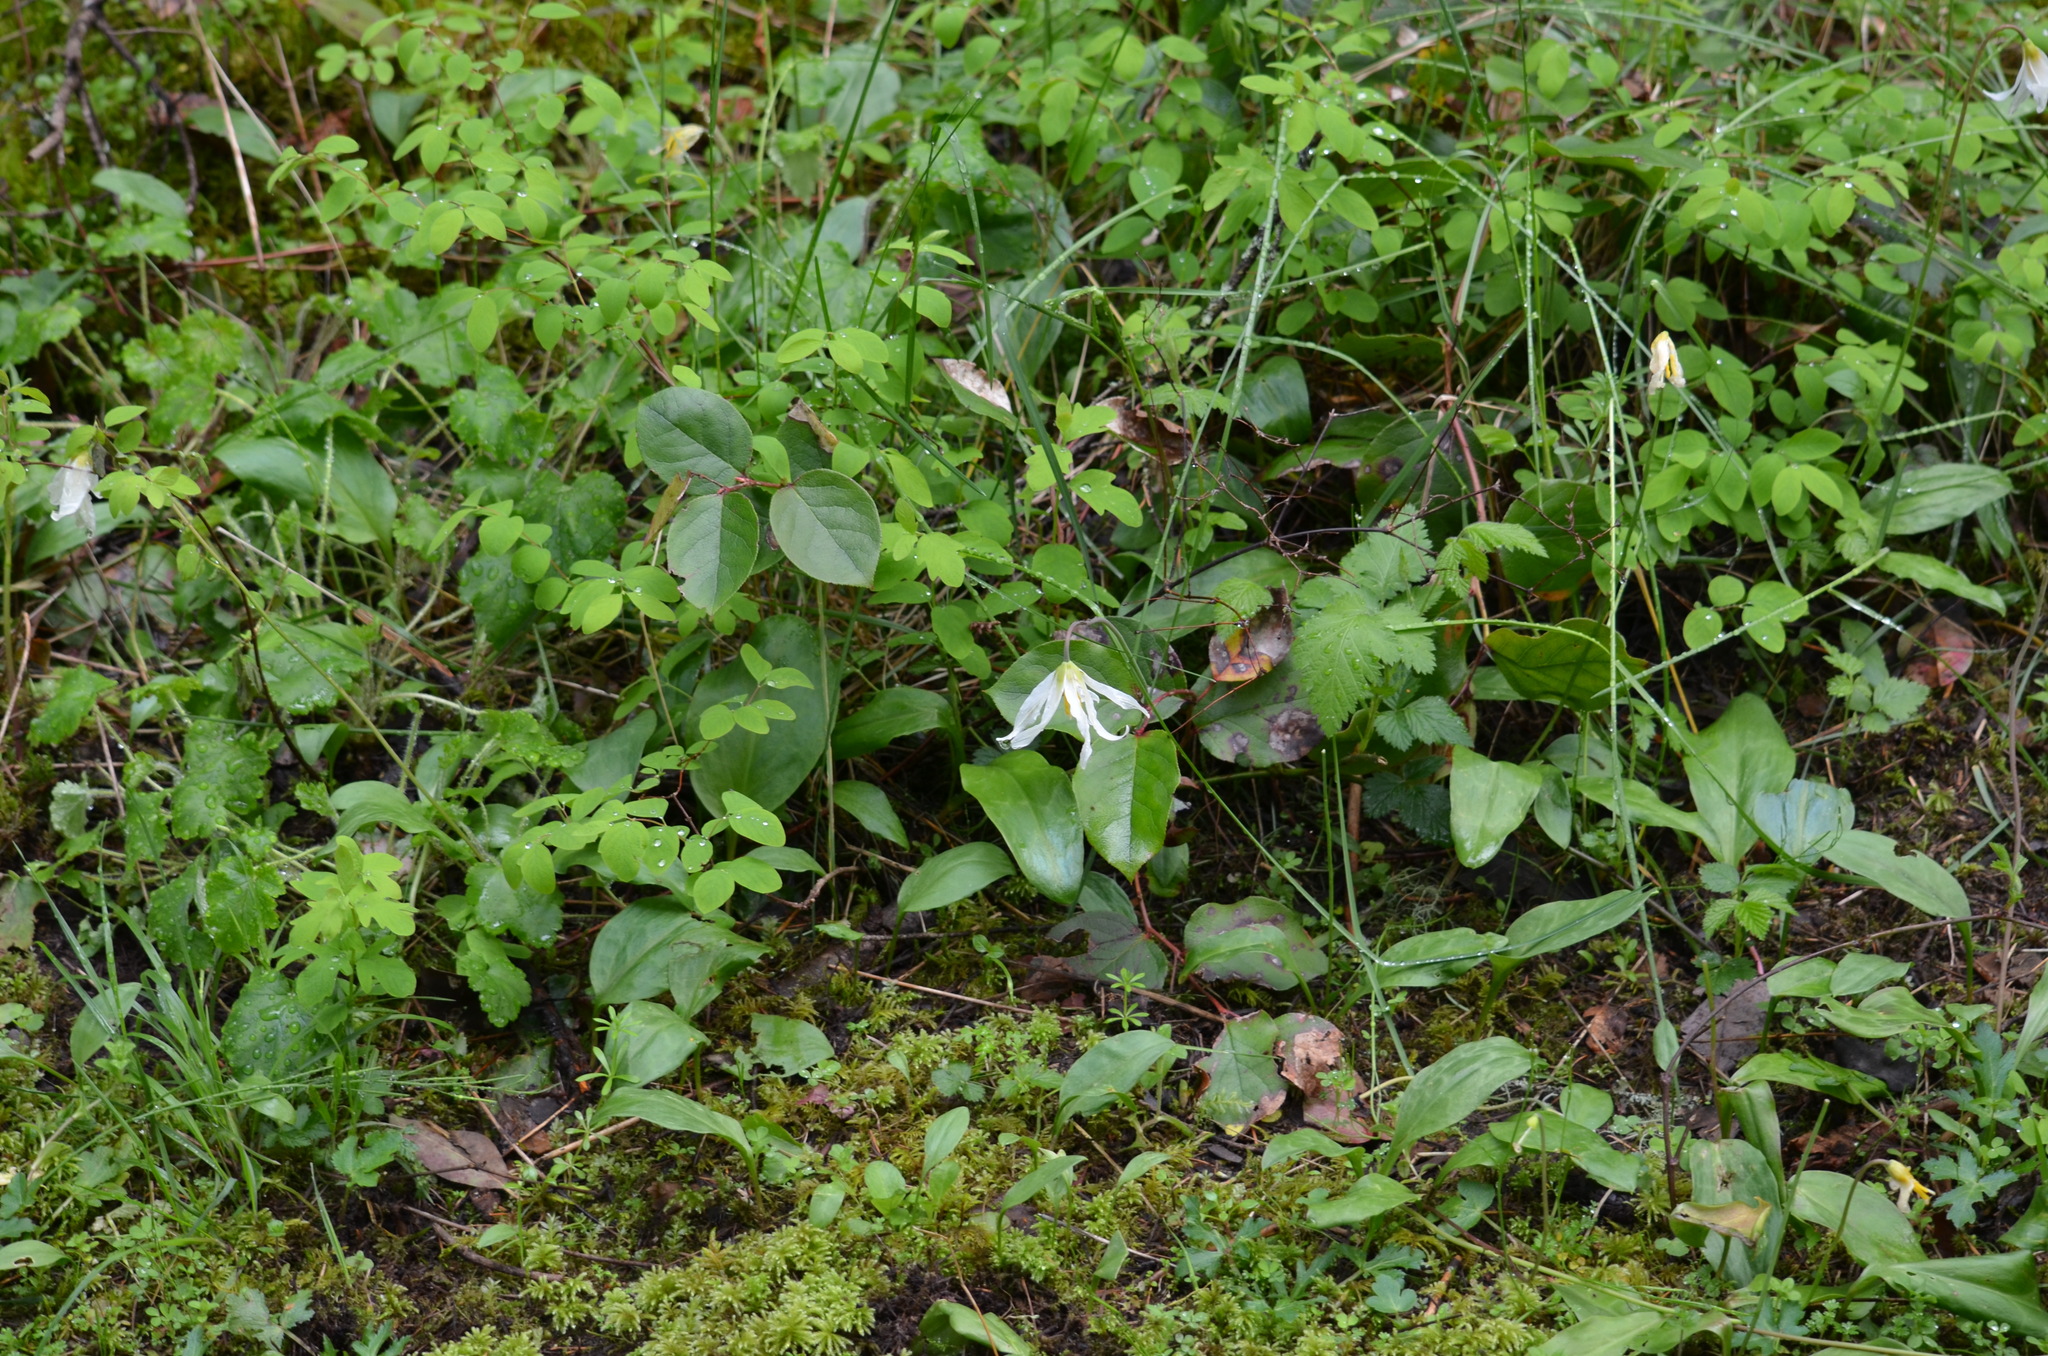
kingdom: Plantae
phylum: Tracheophyta
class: Liliopsida
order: Liliales
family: Liliaceae
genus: Erythronium
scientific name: Erythronium oregonum
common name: Giant adder's-tongue
